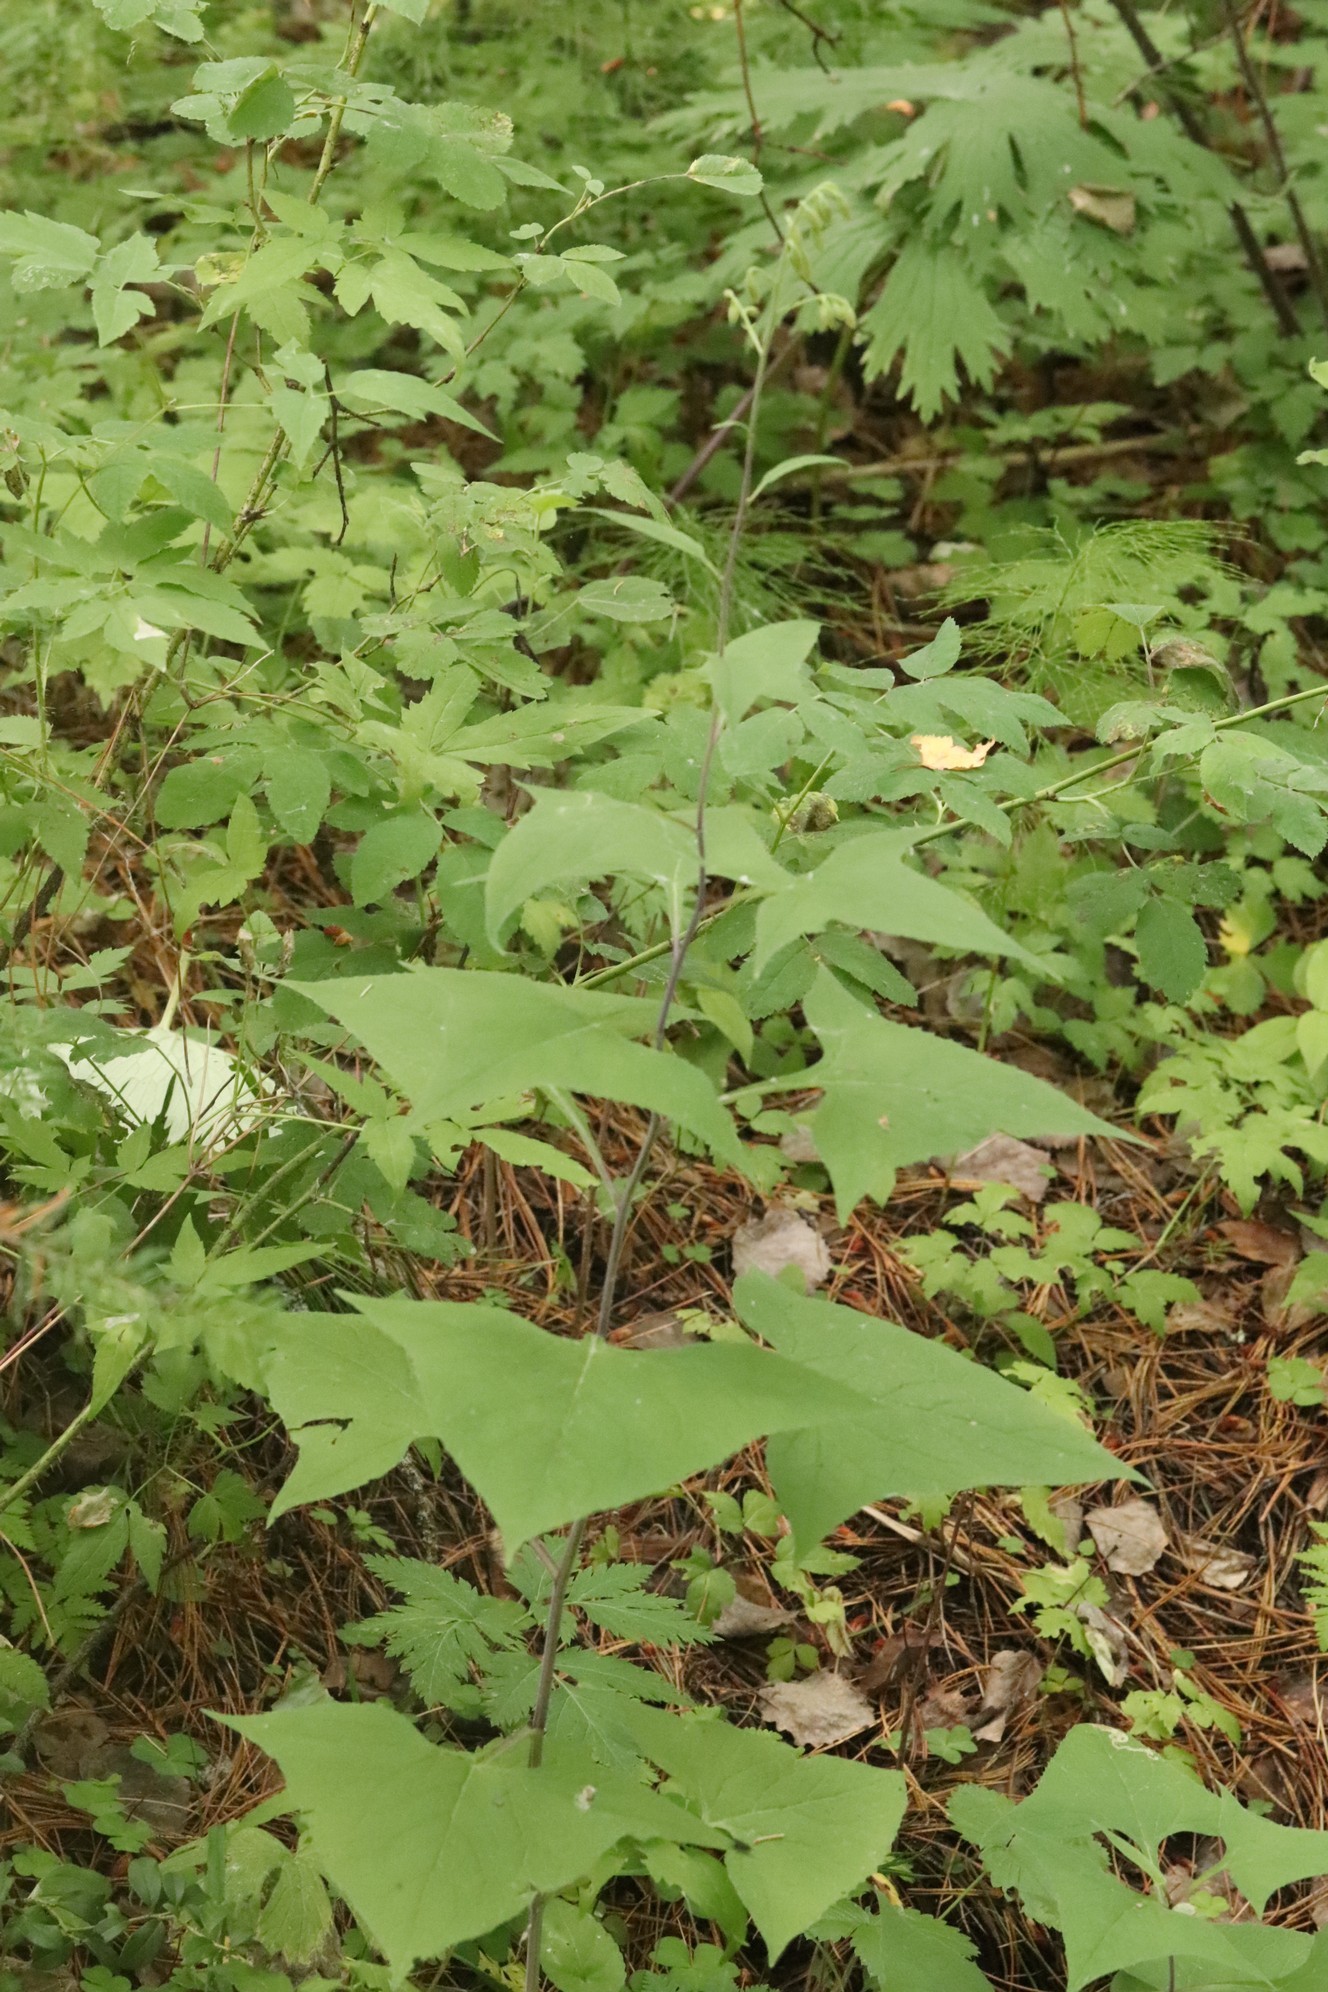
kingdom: Plantae
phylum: Tracheophyta
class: Magnoliopsida
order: Asterales
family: Asteraceae
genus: Parasenecio
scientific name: Parasenecio hastatus
